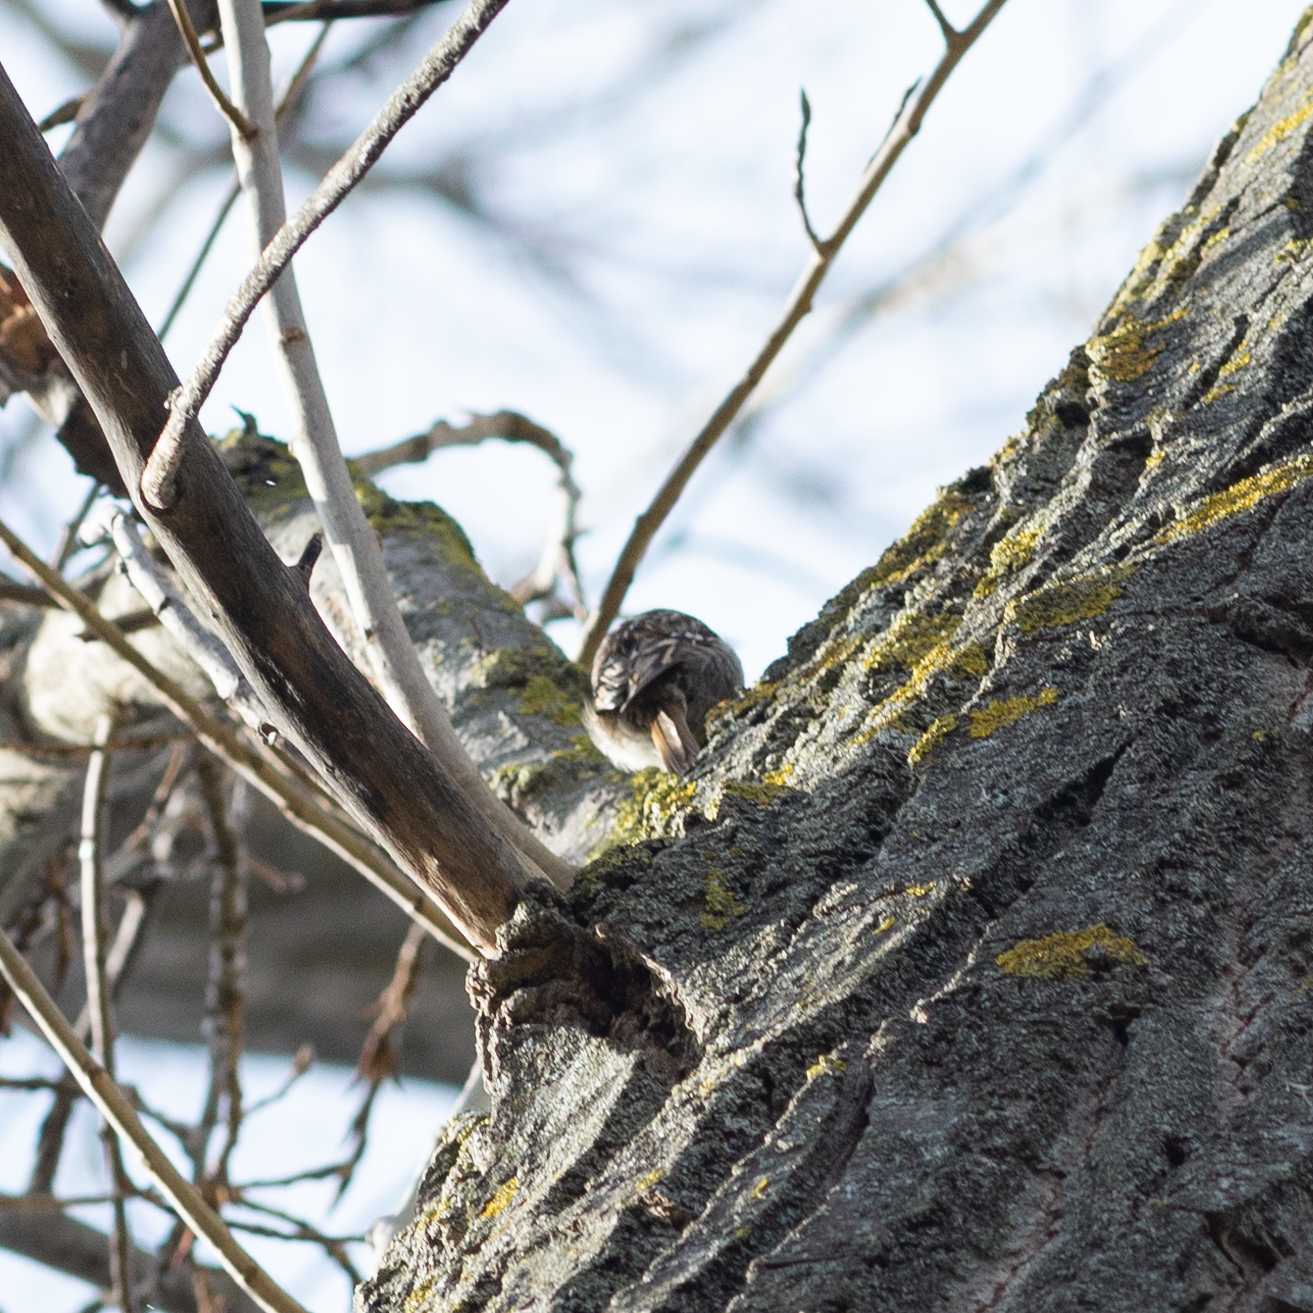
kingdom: Animalia
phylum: Chordata
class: Aves
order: Passeriformes
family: Certhiidae
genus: Certhia
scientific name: Certhia brachydactyla
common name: Short-toed treecreeper
